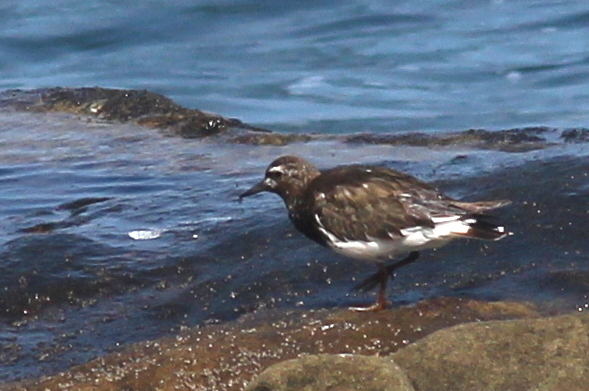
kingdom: Animalia
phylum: Chordata
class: Aves
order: Charadriiformes
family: Scolopacidae
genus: Arenaria
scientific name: Arenaria melanocephala
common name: Black turnstone
